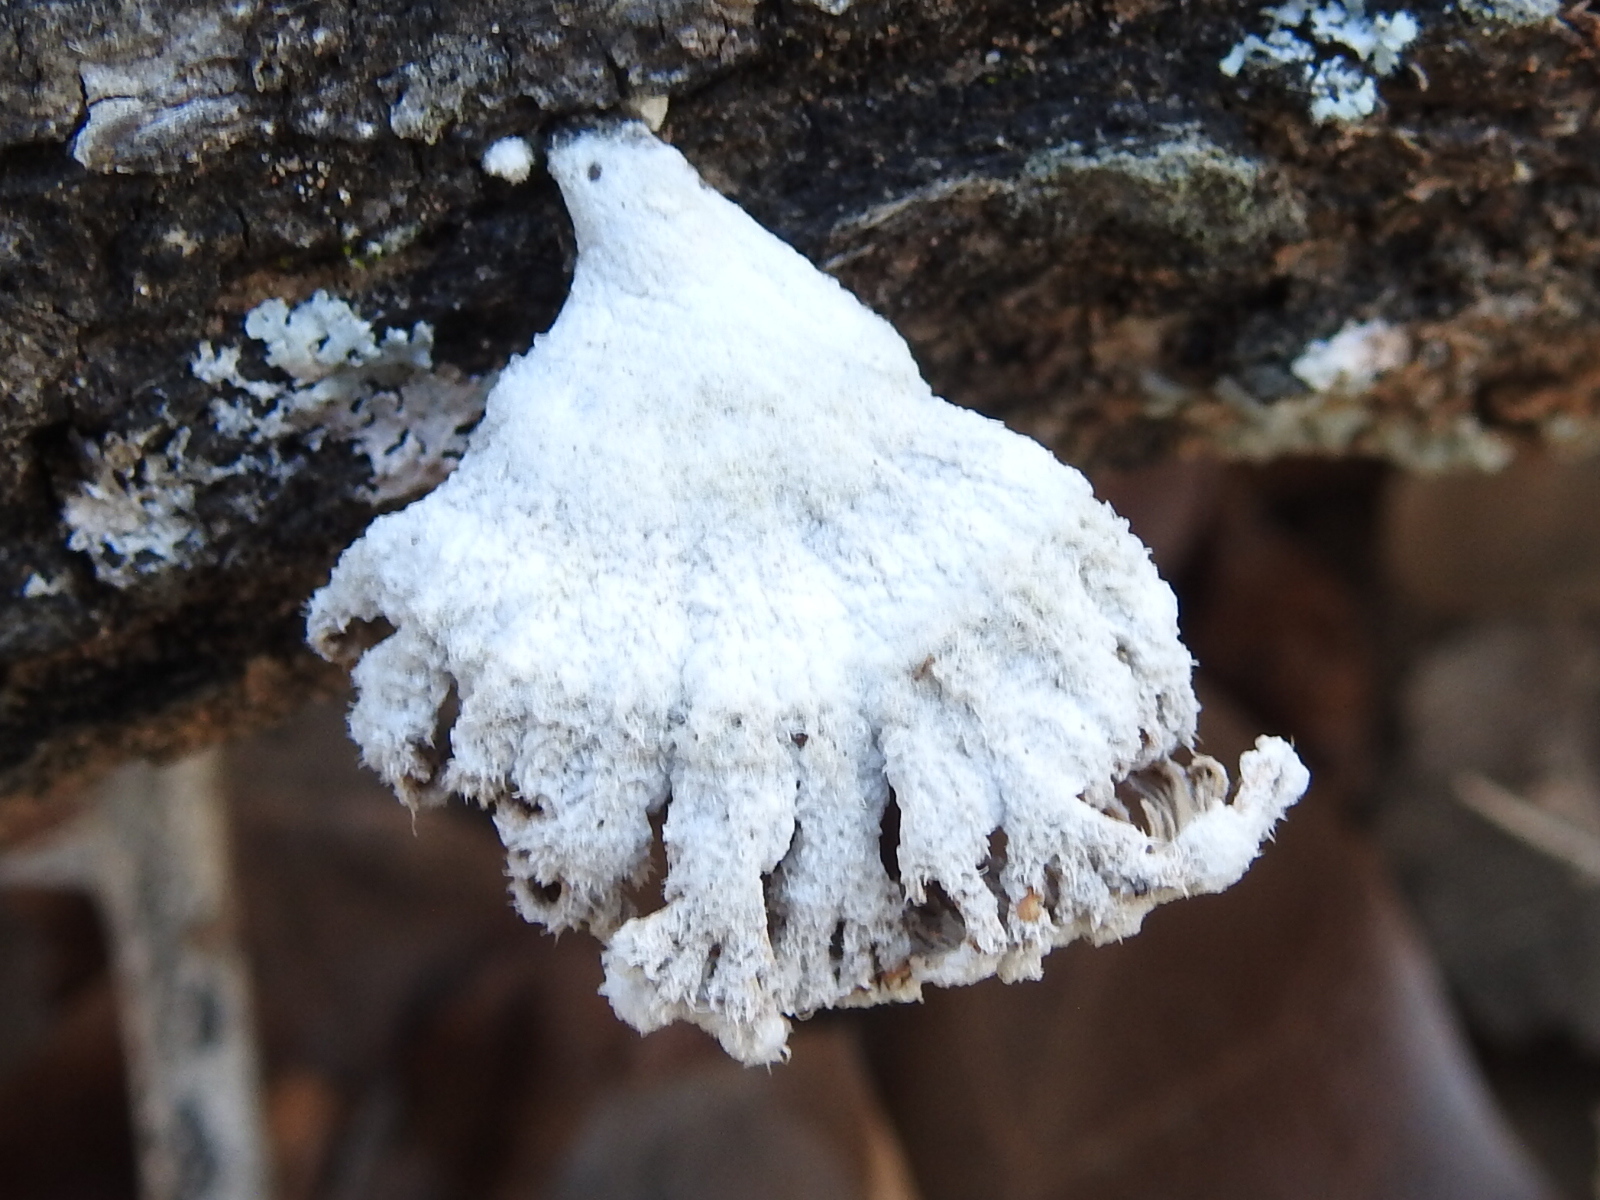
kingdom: Fungi
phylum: Basidiomycota
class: Agaricomycetes
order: Agaricales
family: Schizophyllaceae
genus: Schizophyllum
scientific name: Schizophyllum commune
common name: Common porecrust
